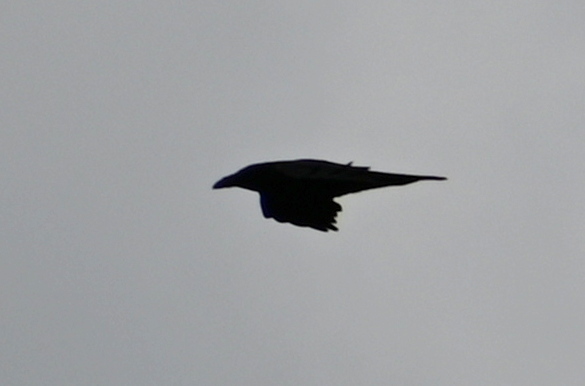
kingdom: Animalia
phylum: Chordata
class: Aves
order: Passeriformes
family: Corvidae
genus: Corvus
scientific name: Corvus corax
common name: Common raven
